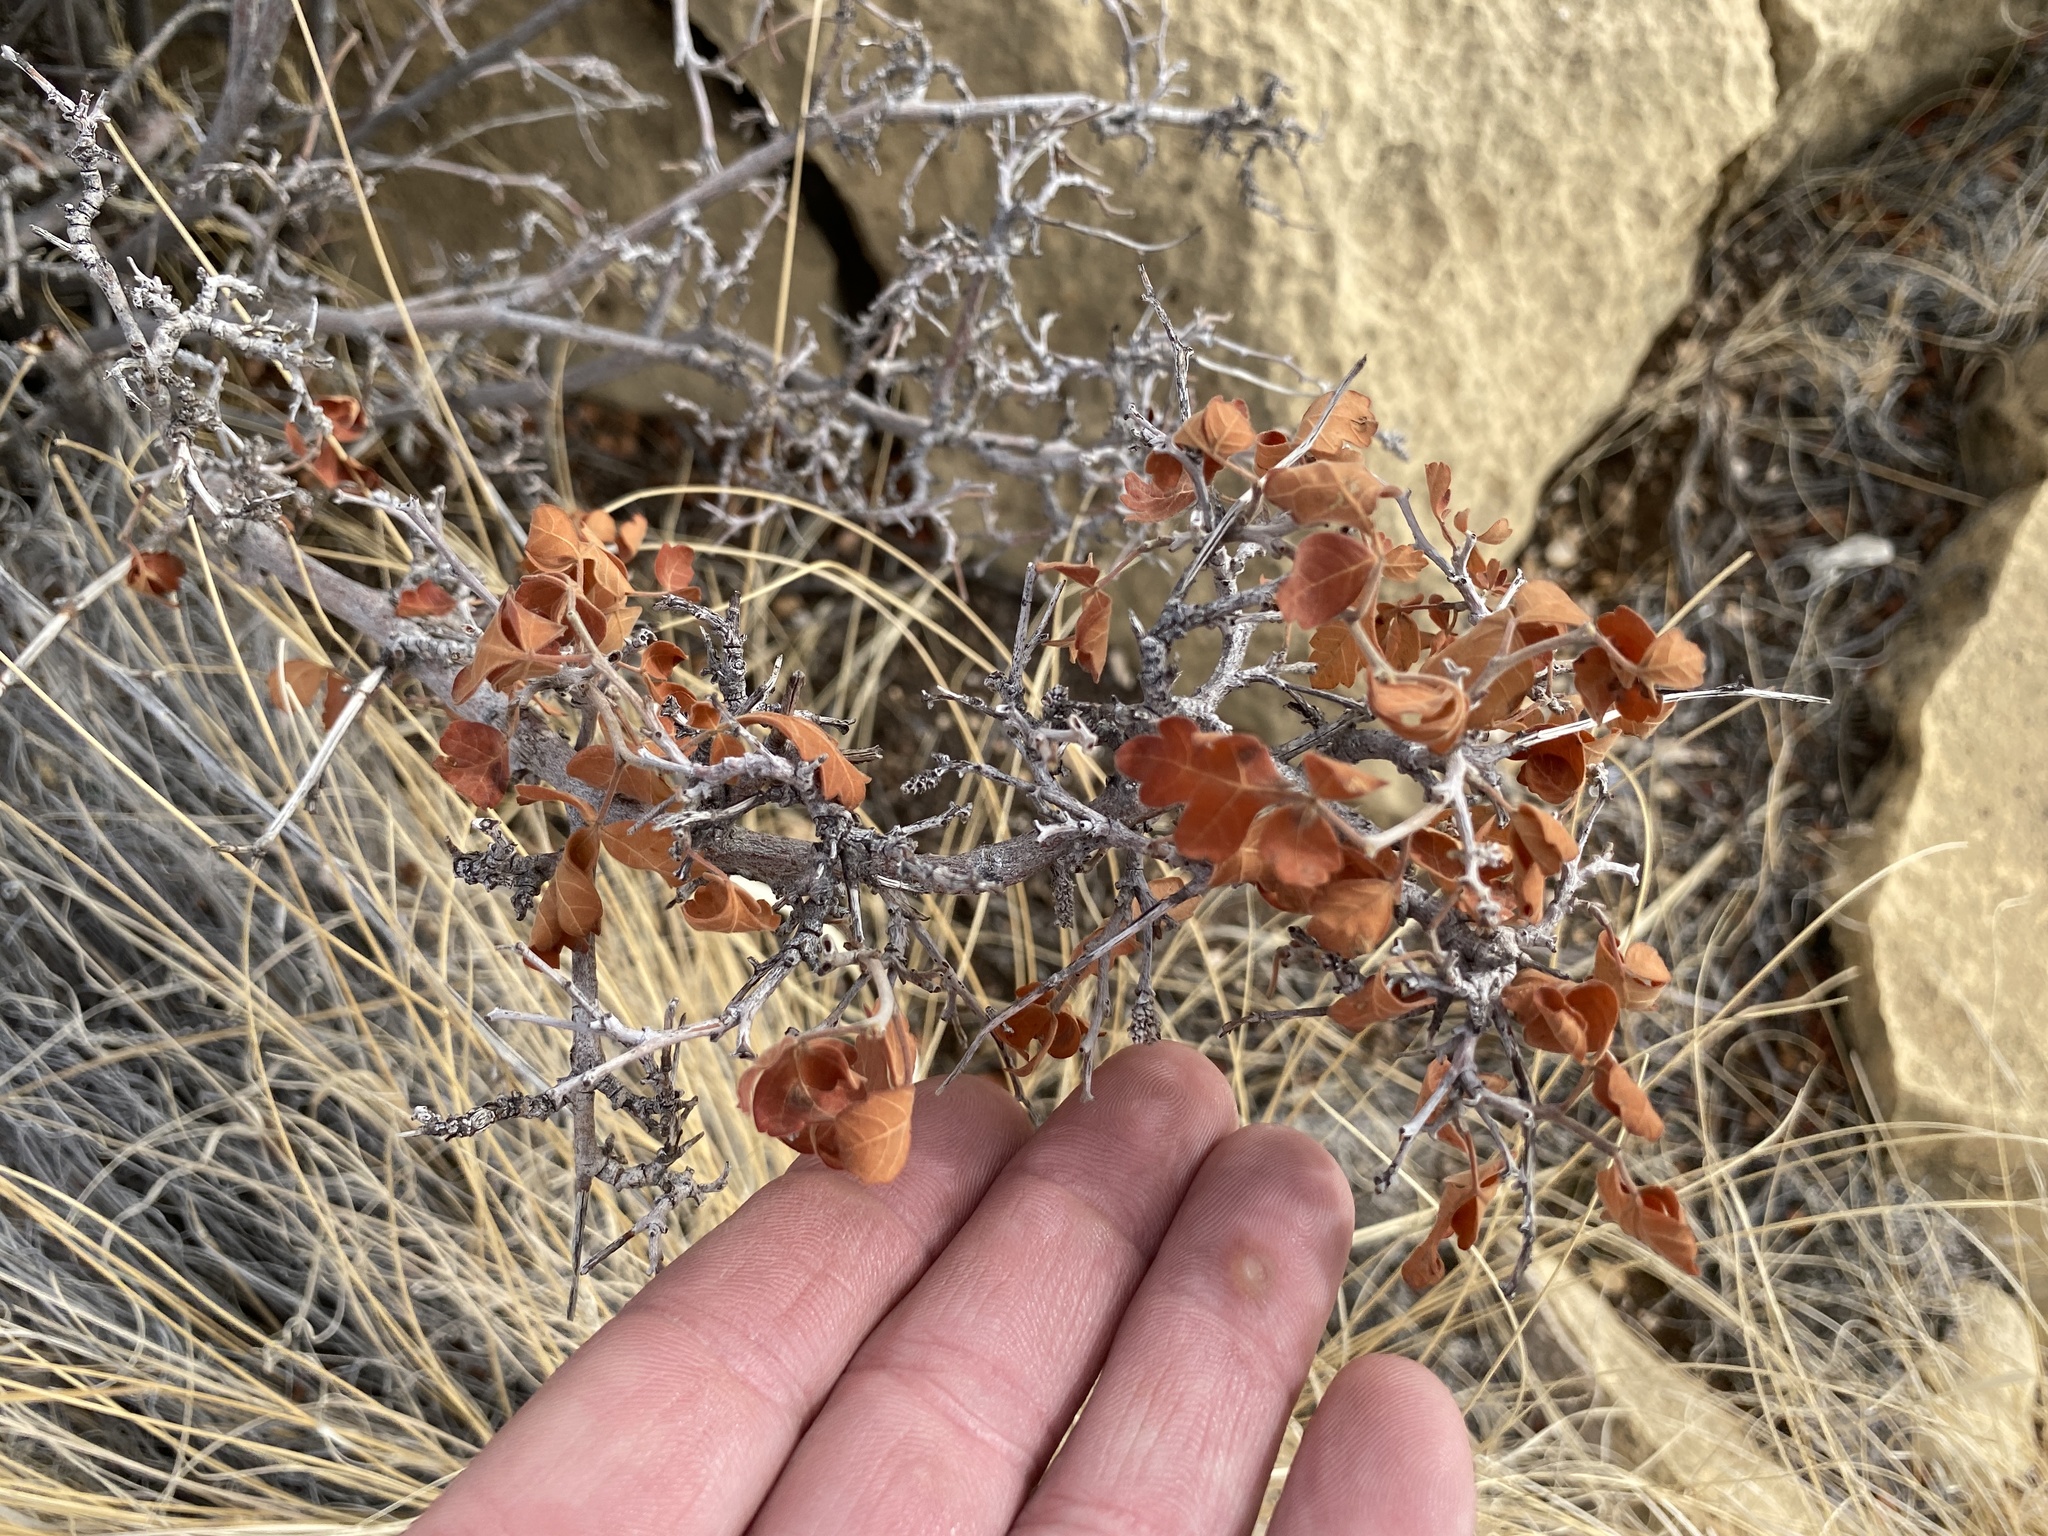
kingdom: Plantae
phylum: Tracheophyta
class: Magnoliopsida
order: Sapindales
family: Anacardiaceae
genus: Rhus
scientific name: Rhus aromatica
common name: Aromatic sumac
